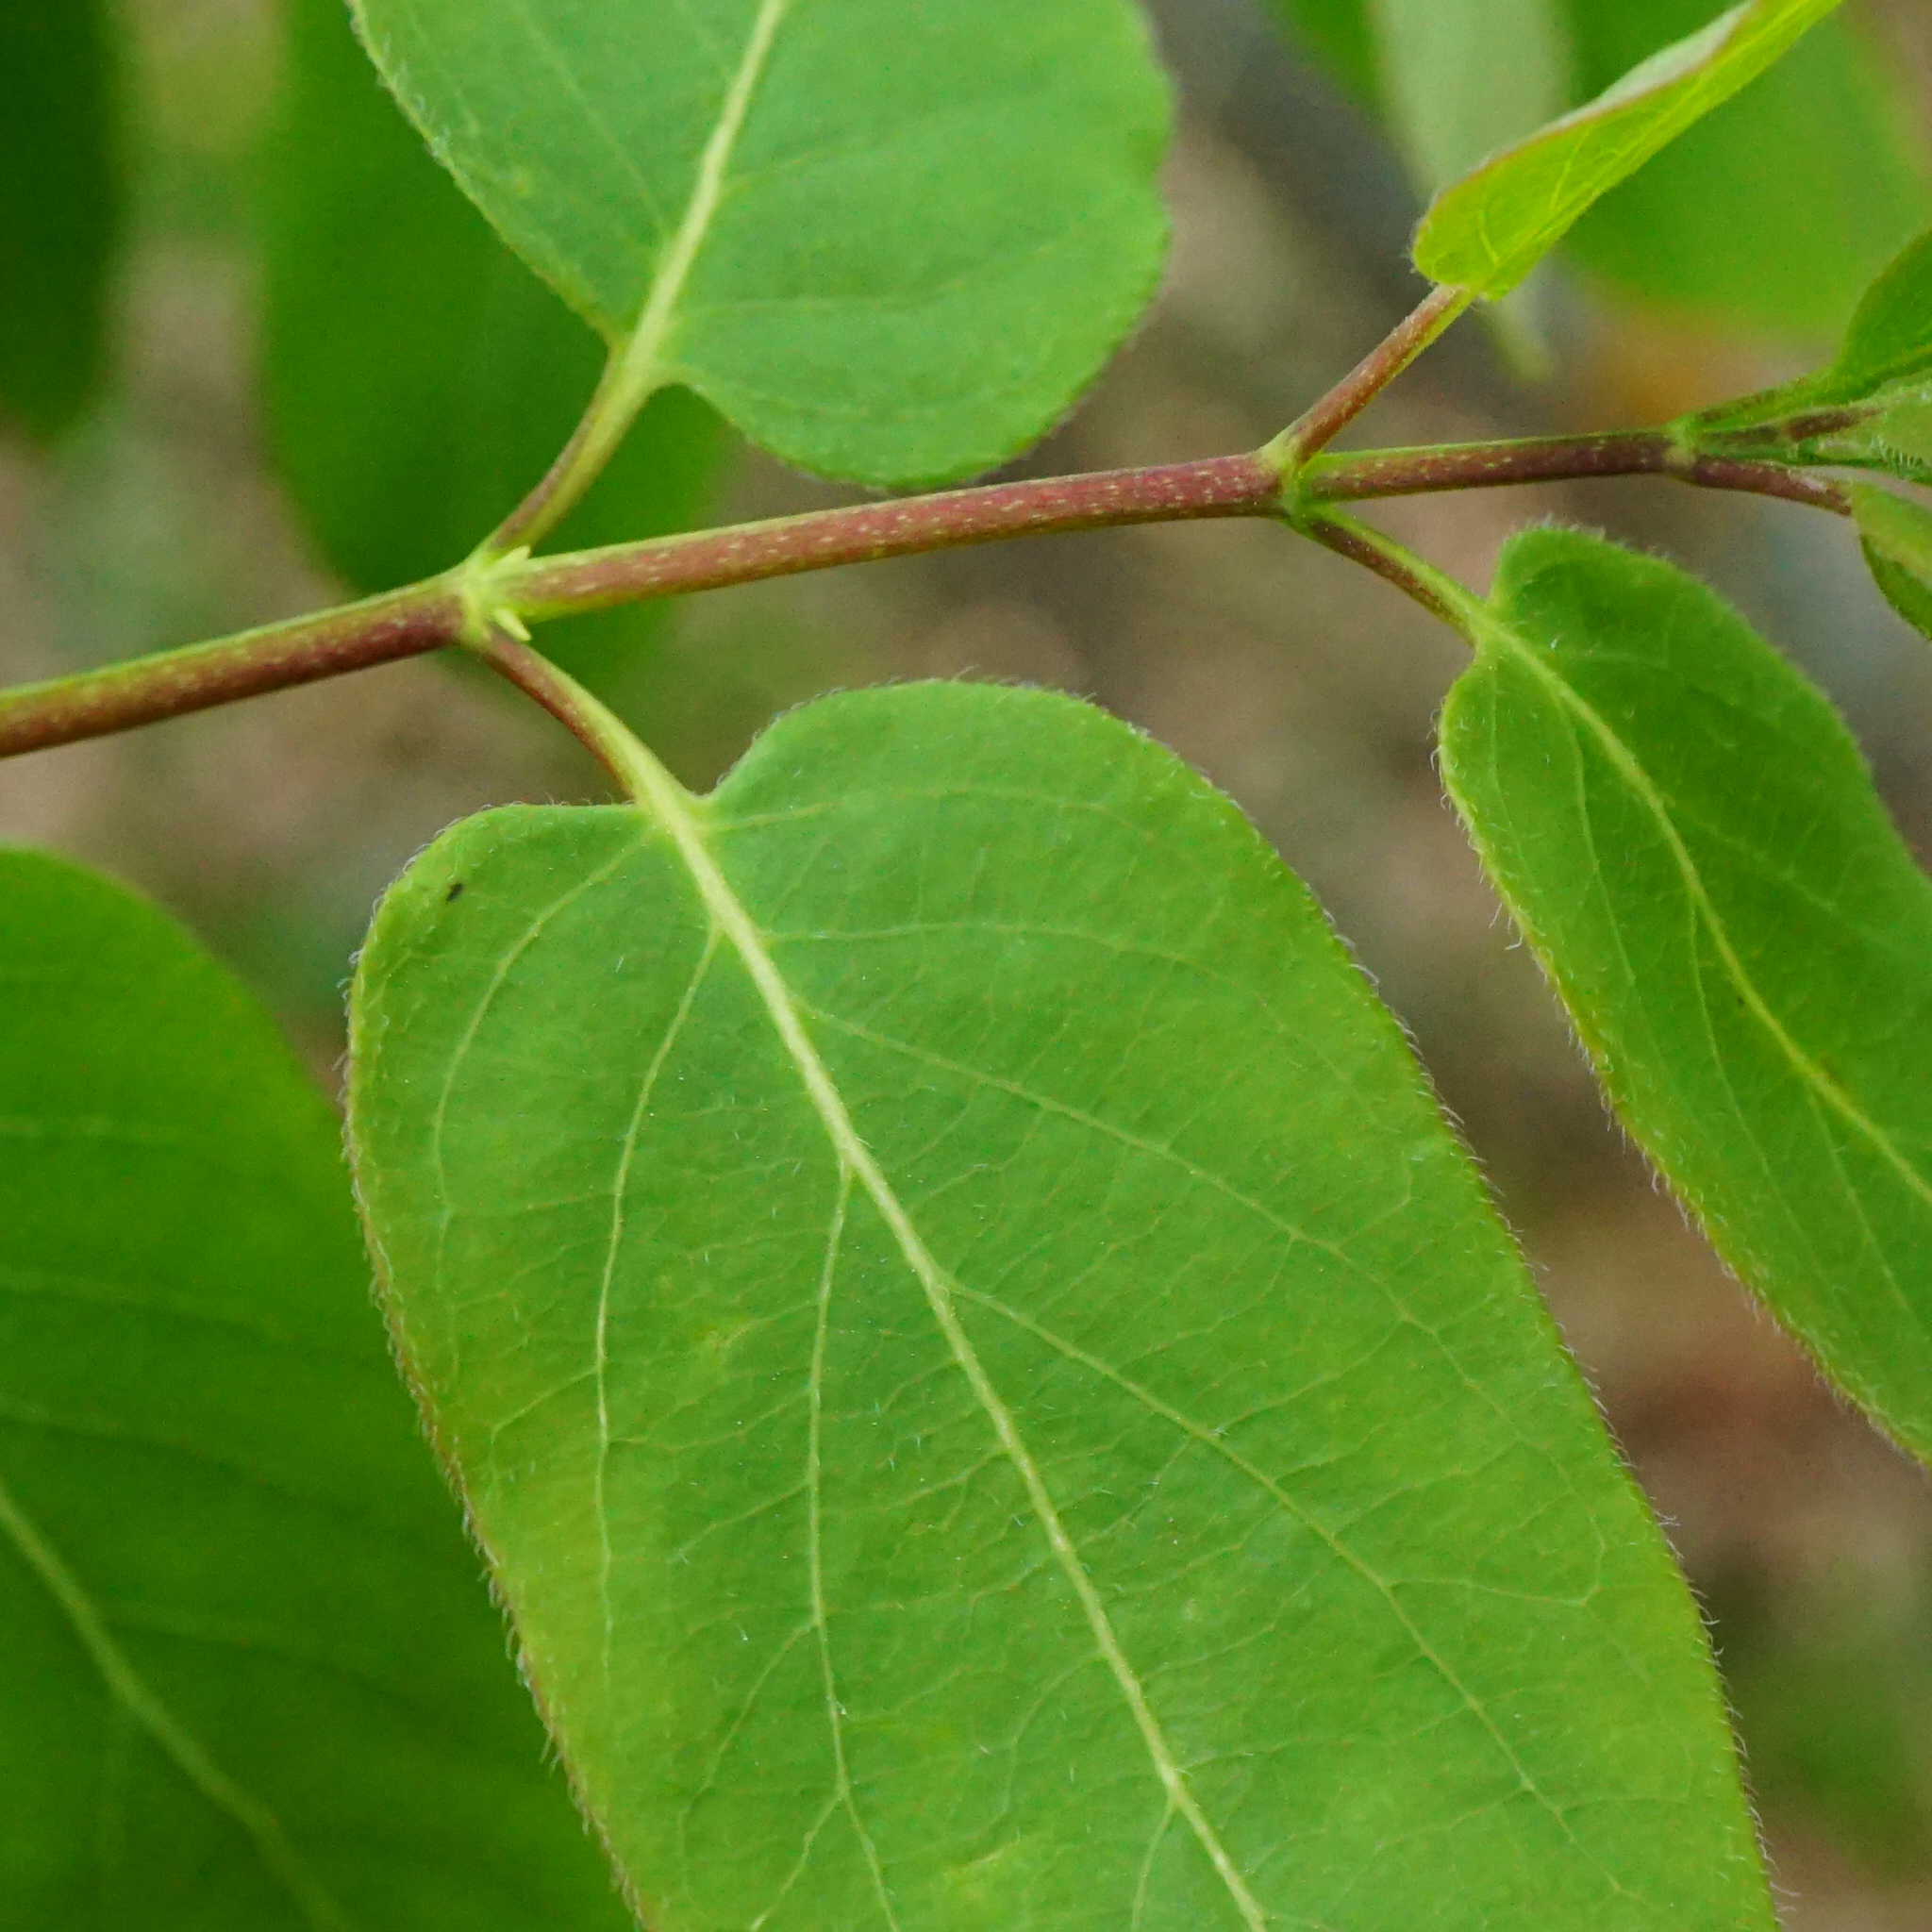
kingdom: Plantae
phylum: Tracheophyta
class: Magnoliopsida
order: Dipsacales
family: Caprifoliaceae
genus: Lonicera
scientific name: Lonicera tatarica
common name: Tatarian honeysuckle
